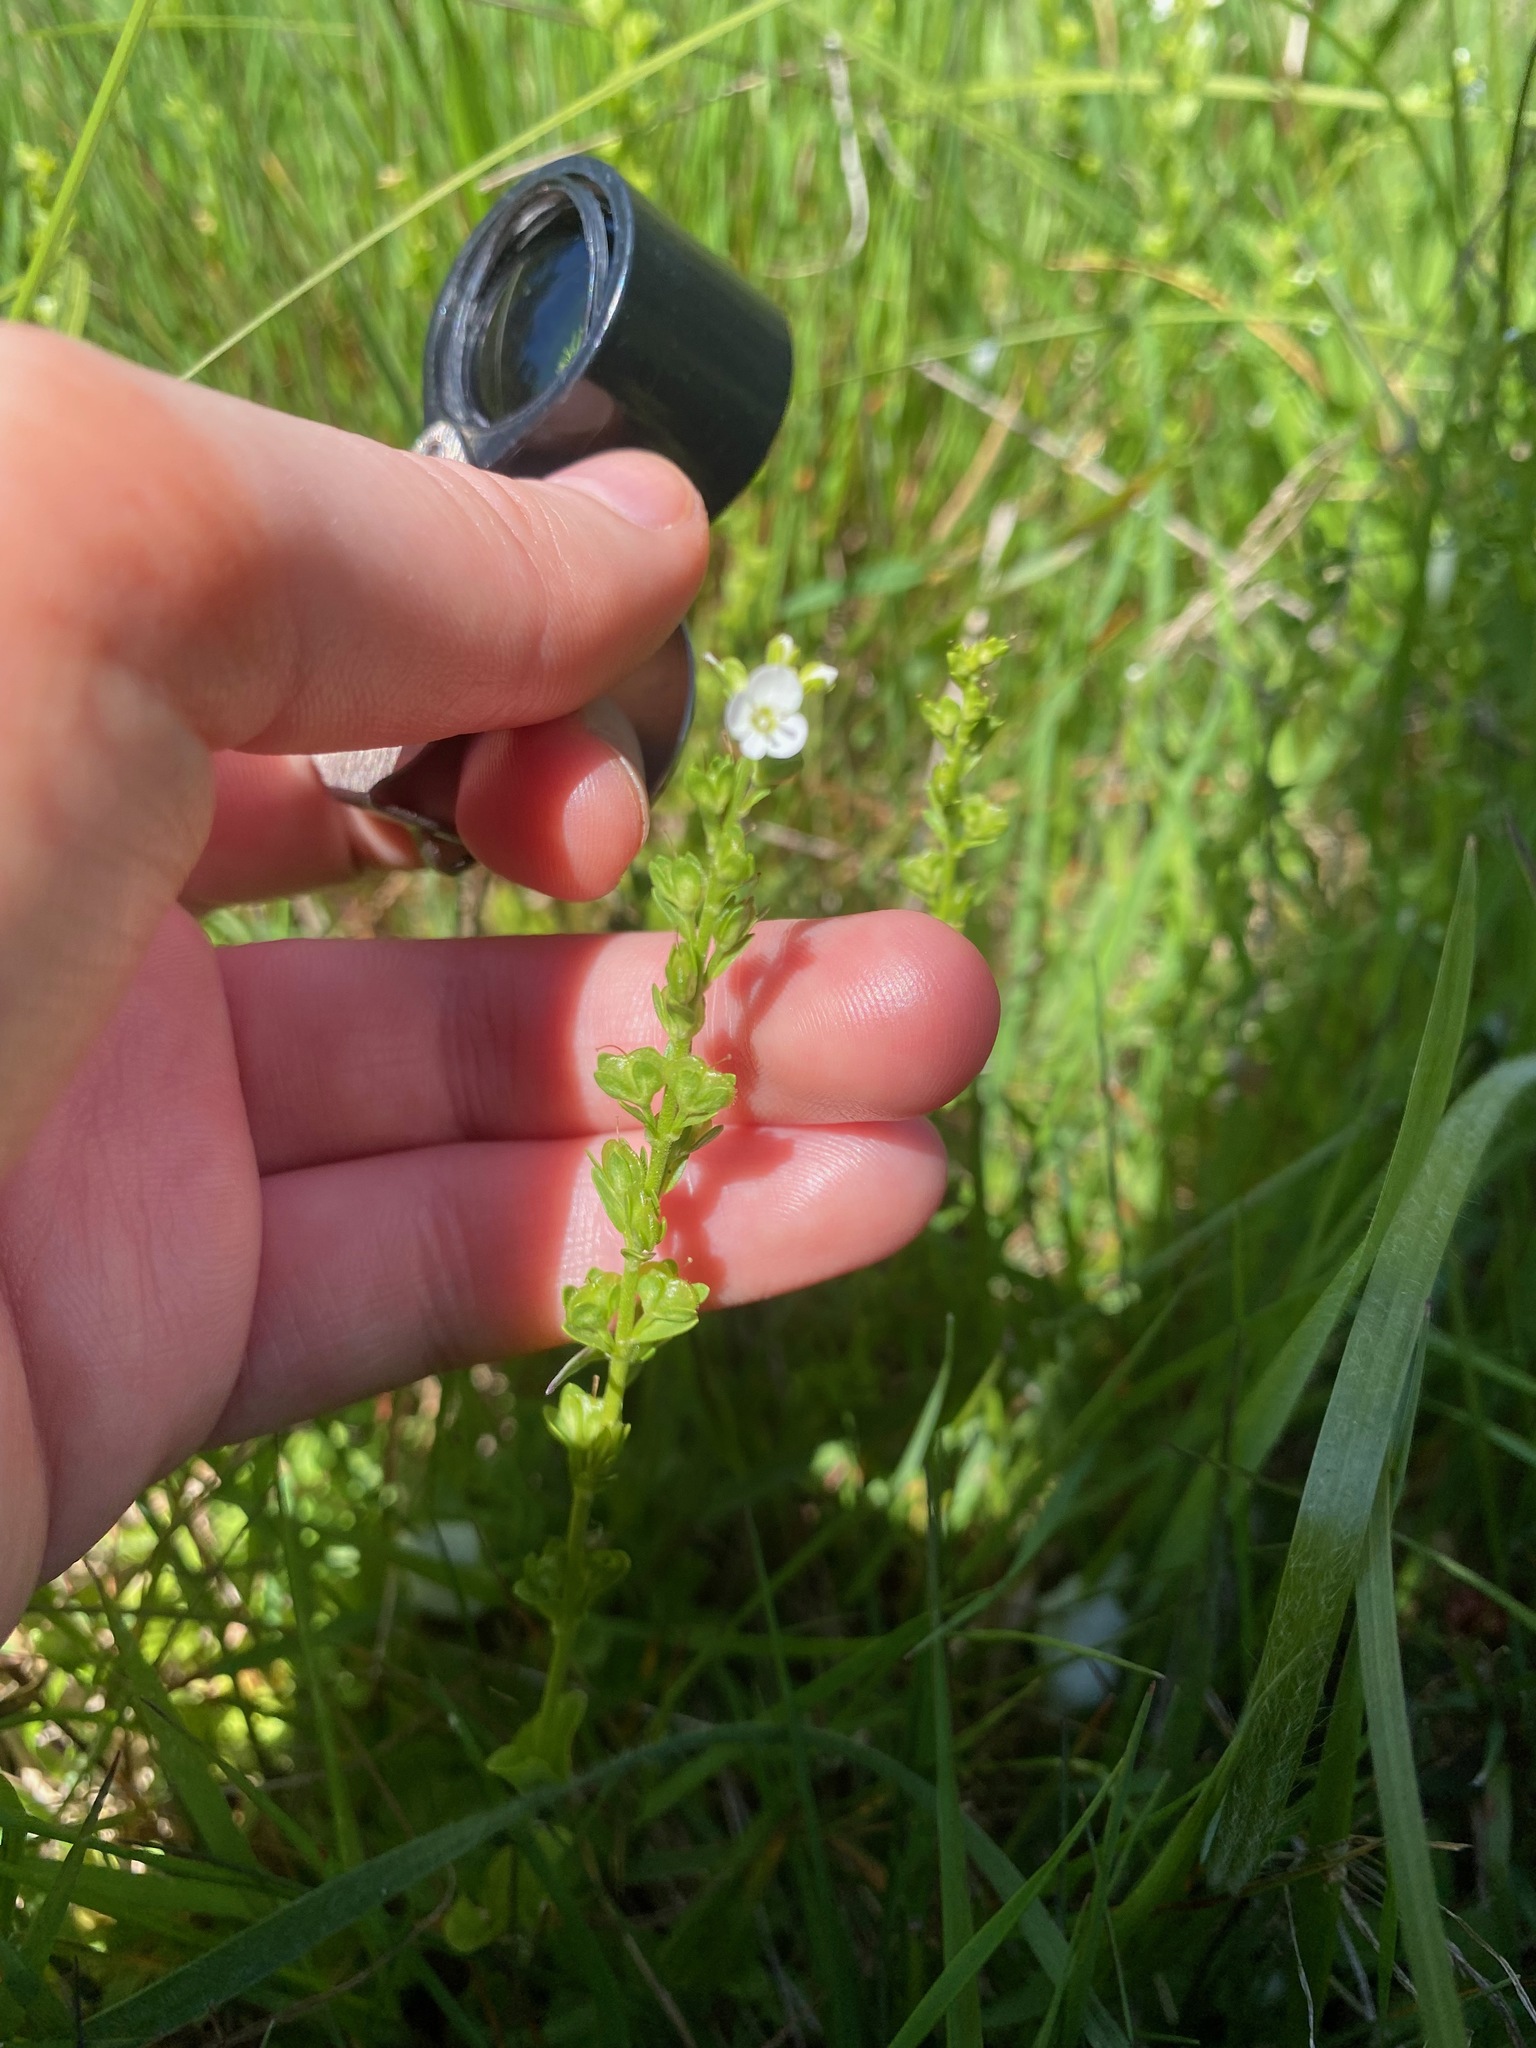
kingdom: Plantae
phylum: Tracheophyta
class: Magnoliopsida
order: Lamiales
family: Plantaginaceae
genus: Veronica
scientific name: Veronica serpyllifolia
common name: Thyme-leaved speedwell
